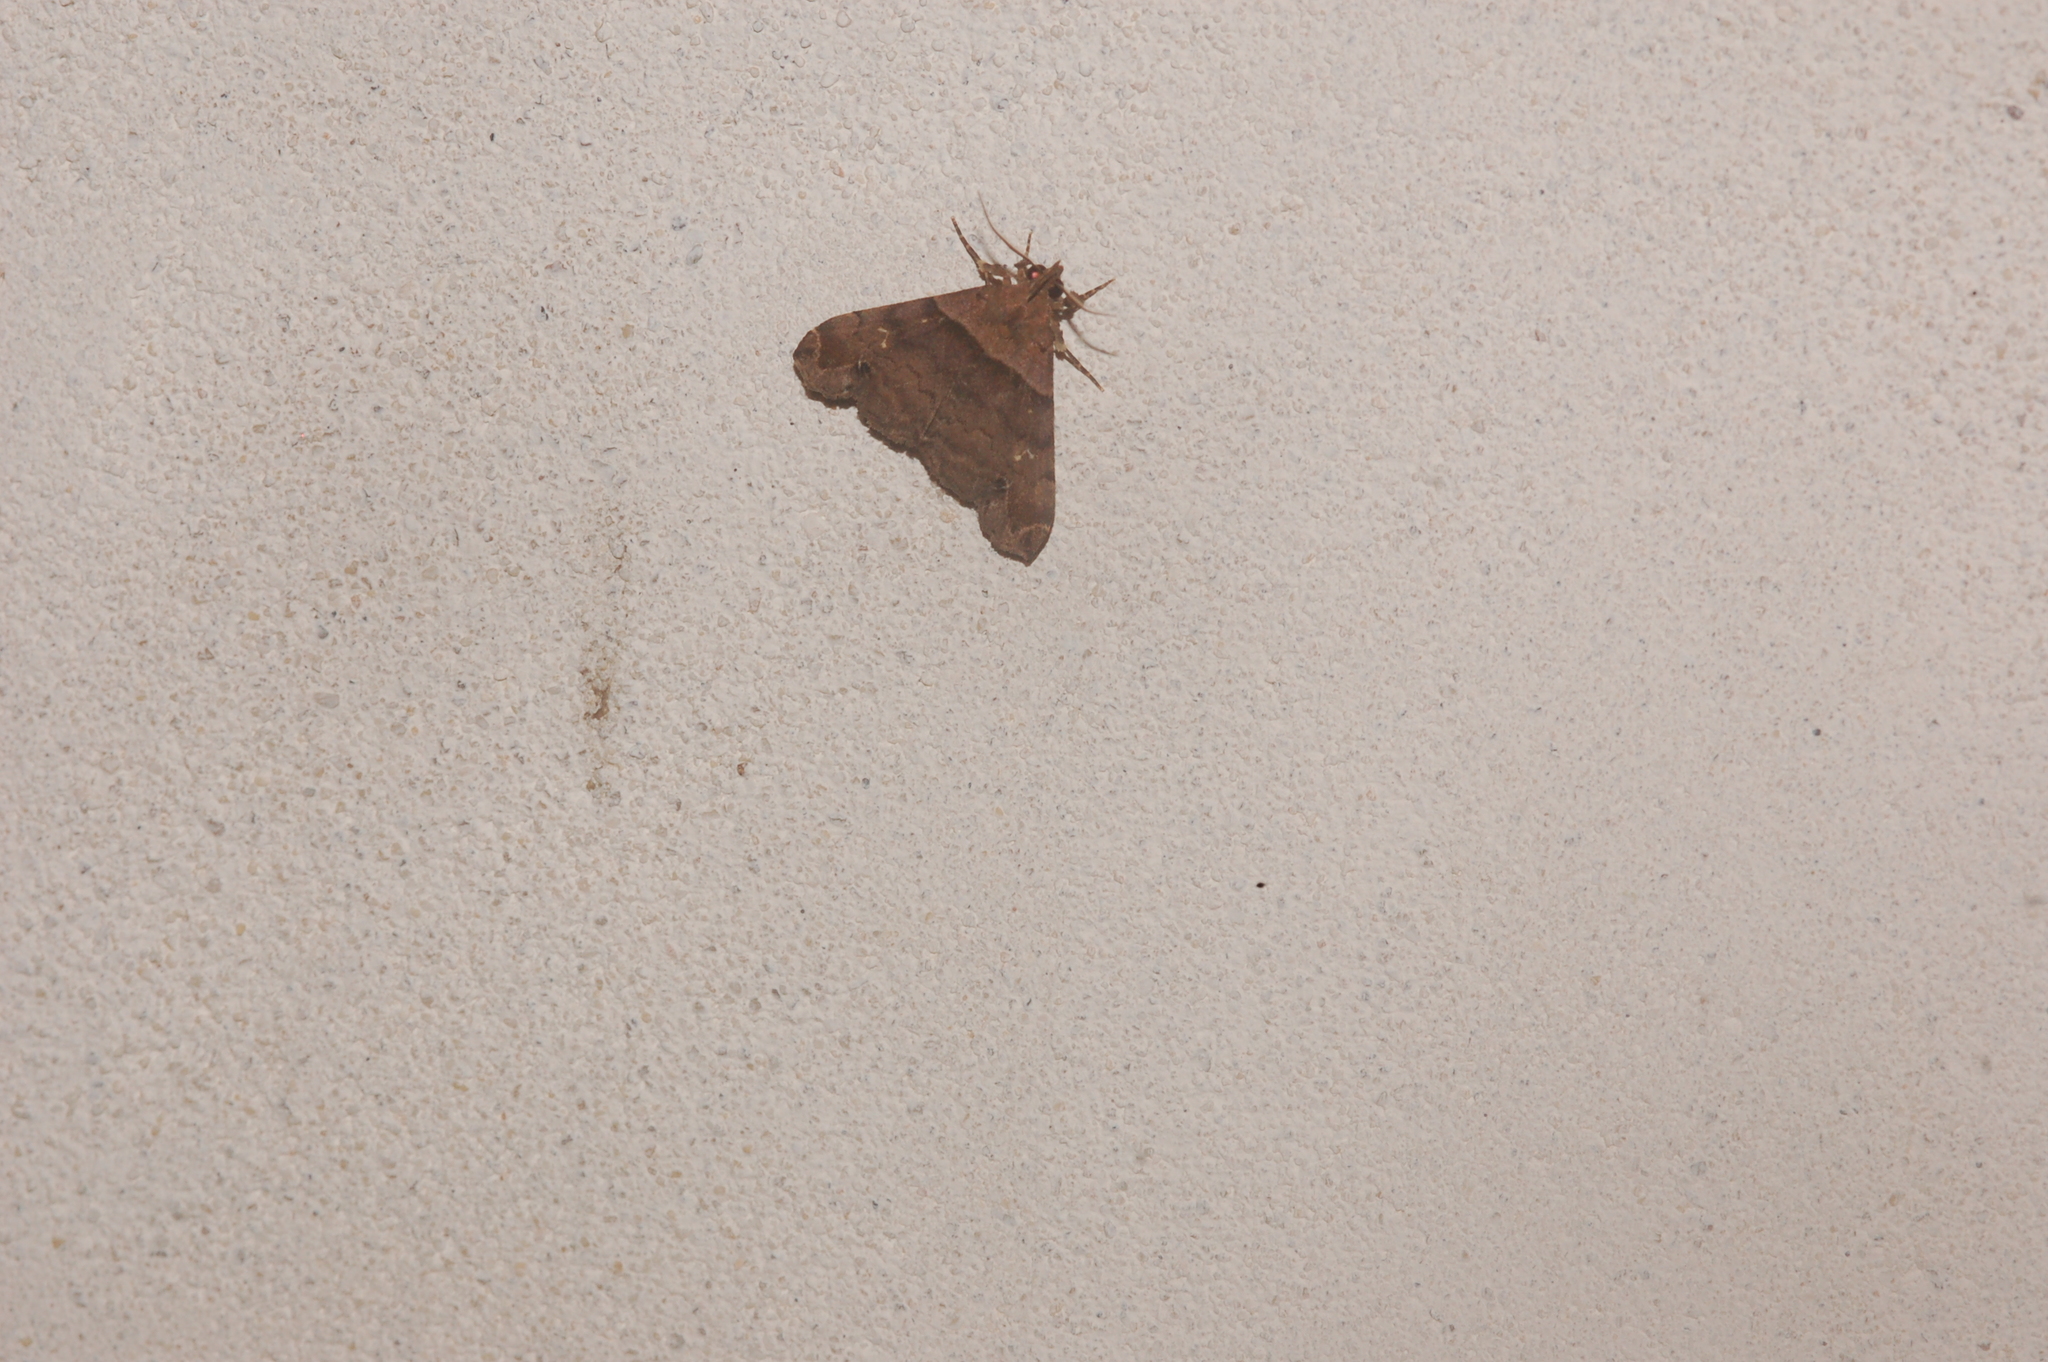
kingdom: Animalia
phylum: Arthropoda
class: Insecta
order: Lepidoptera
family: Erebidae
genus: Lascoria
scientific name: Lascoria ambigualis
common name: Ambiguous moth
